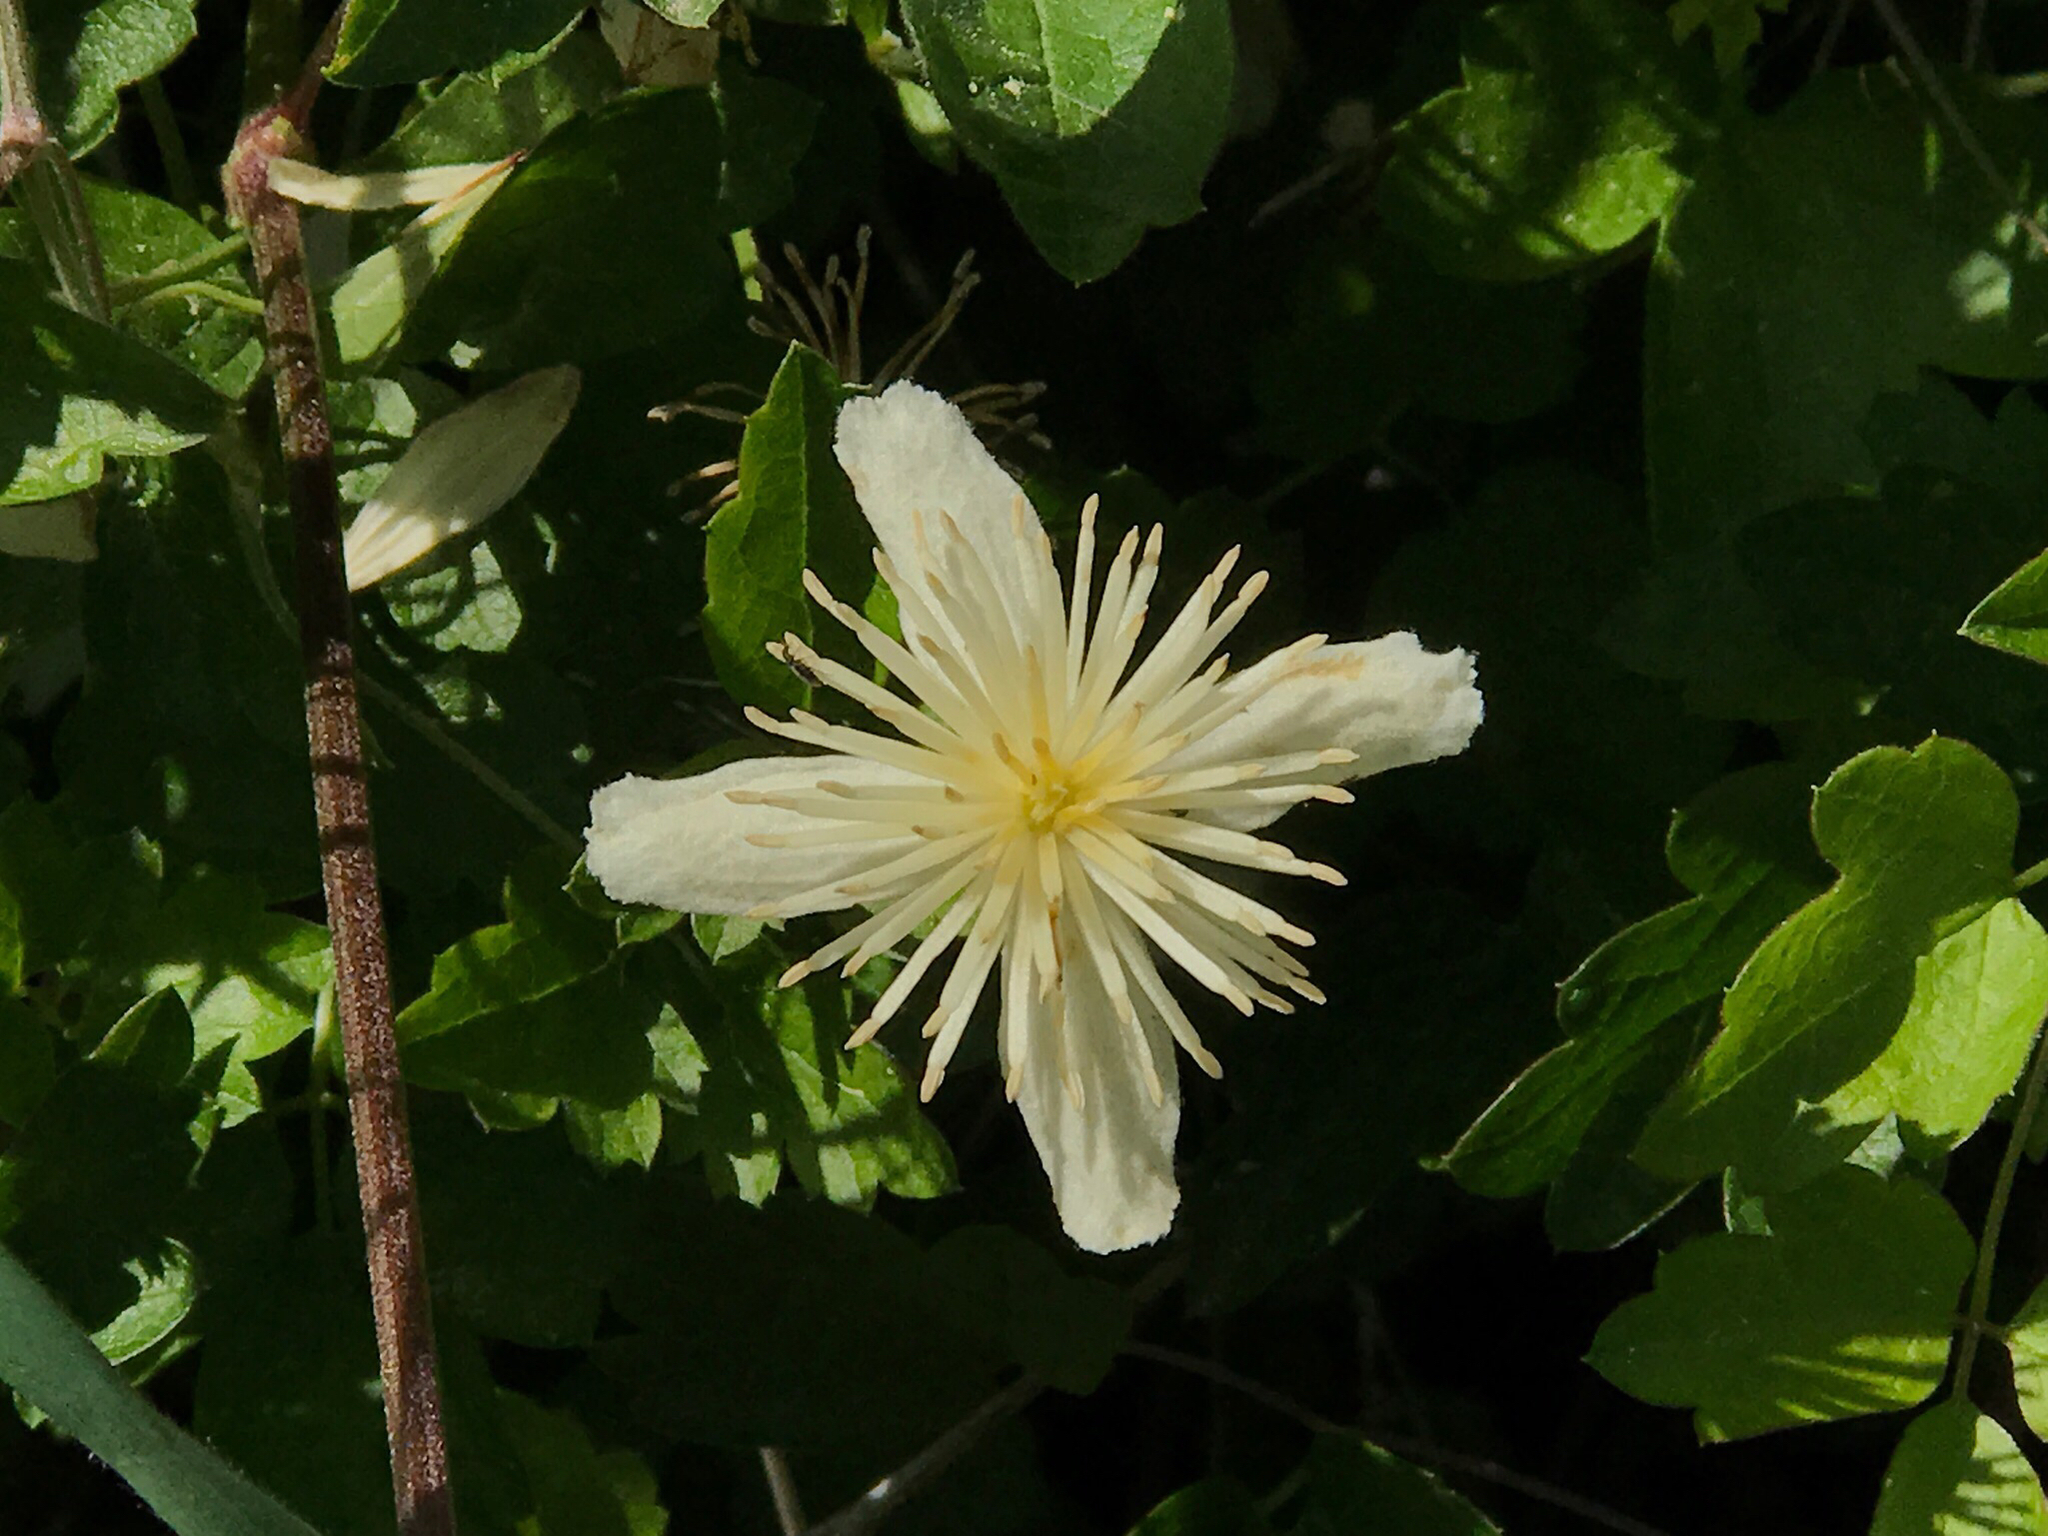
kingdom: Plantae
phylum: Tracheophyta
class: Magnoliopsida
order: Ranunculales
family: Ranunculaceae
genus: Clematis
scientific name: Clematis lasiantha
